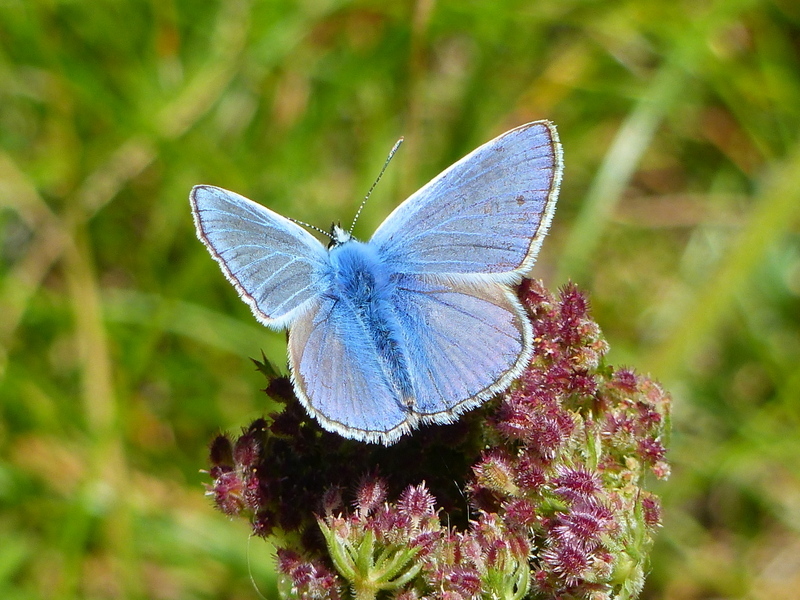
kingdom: Animalia
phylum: Arthropoda
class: Insecta
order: Lepidoptera
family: Lycaenidae
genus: Polyommatus
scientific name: Polyommatus icarus
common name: Common blue
